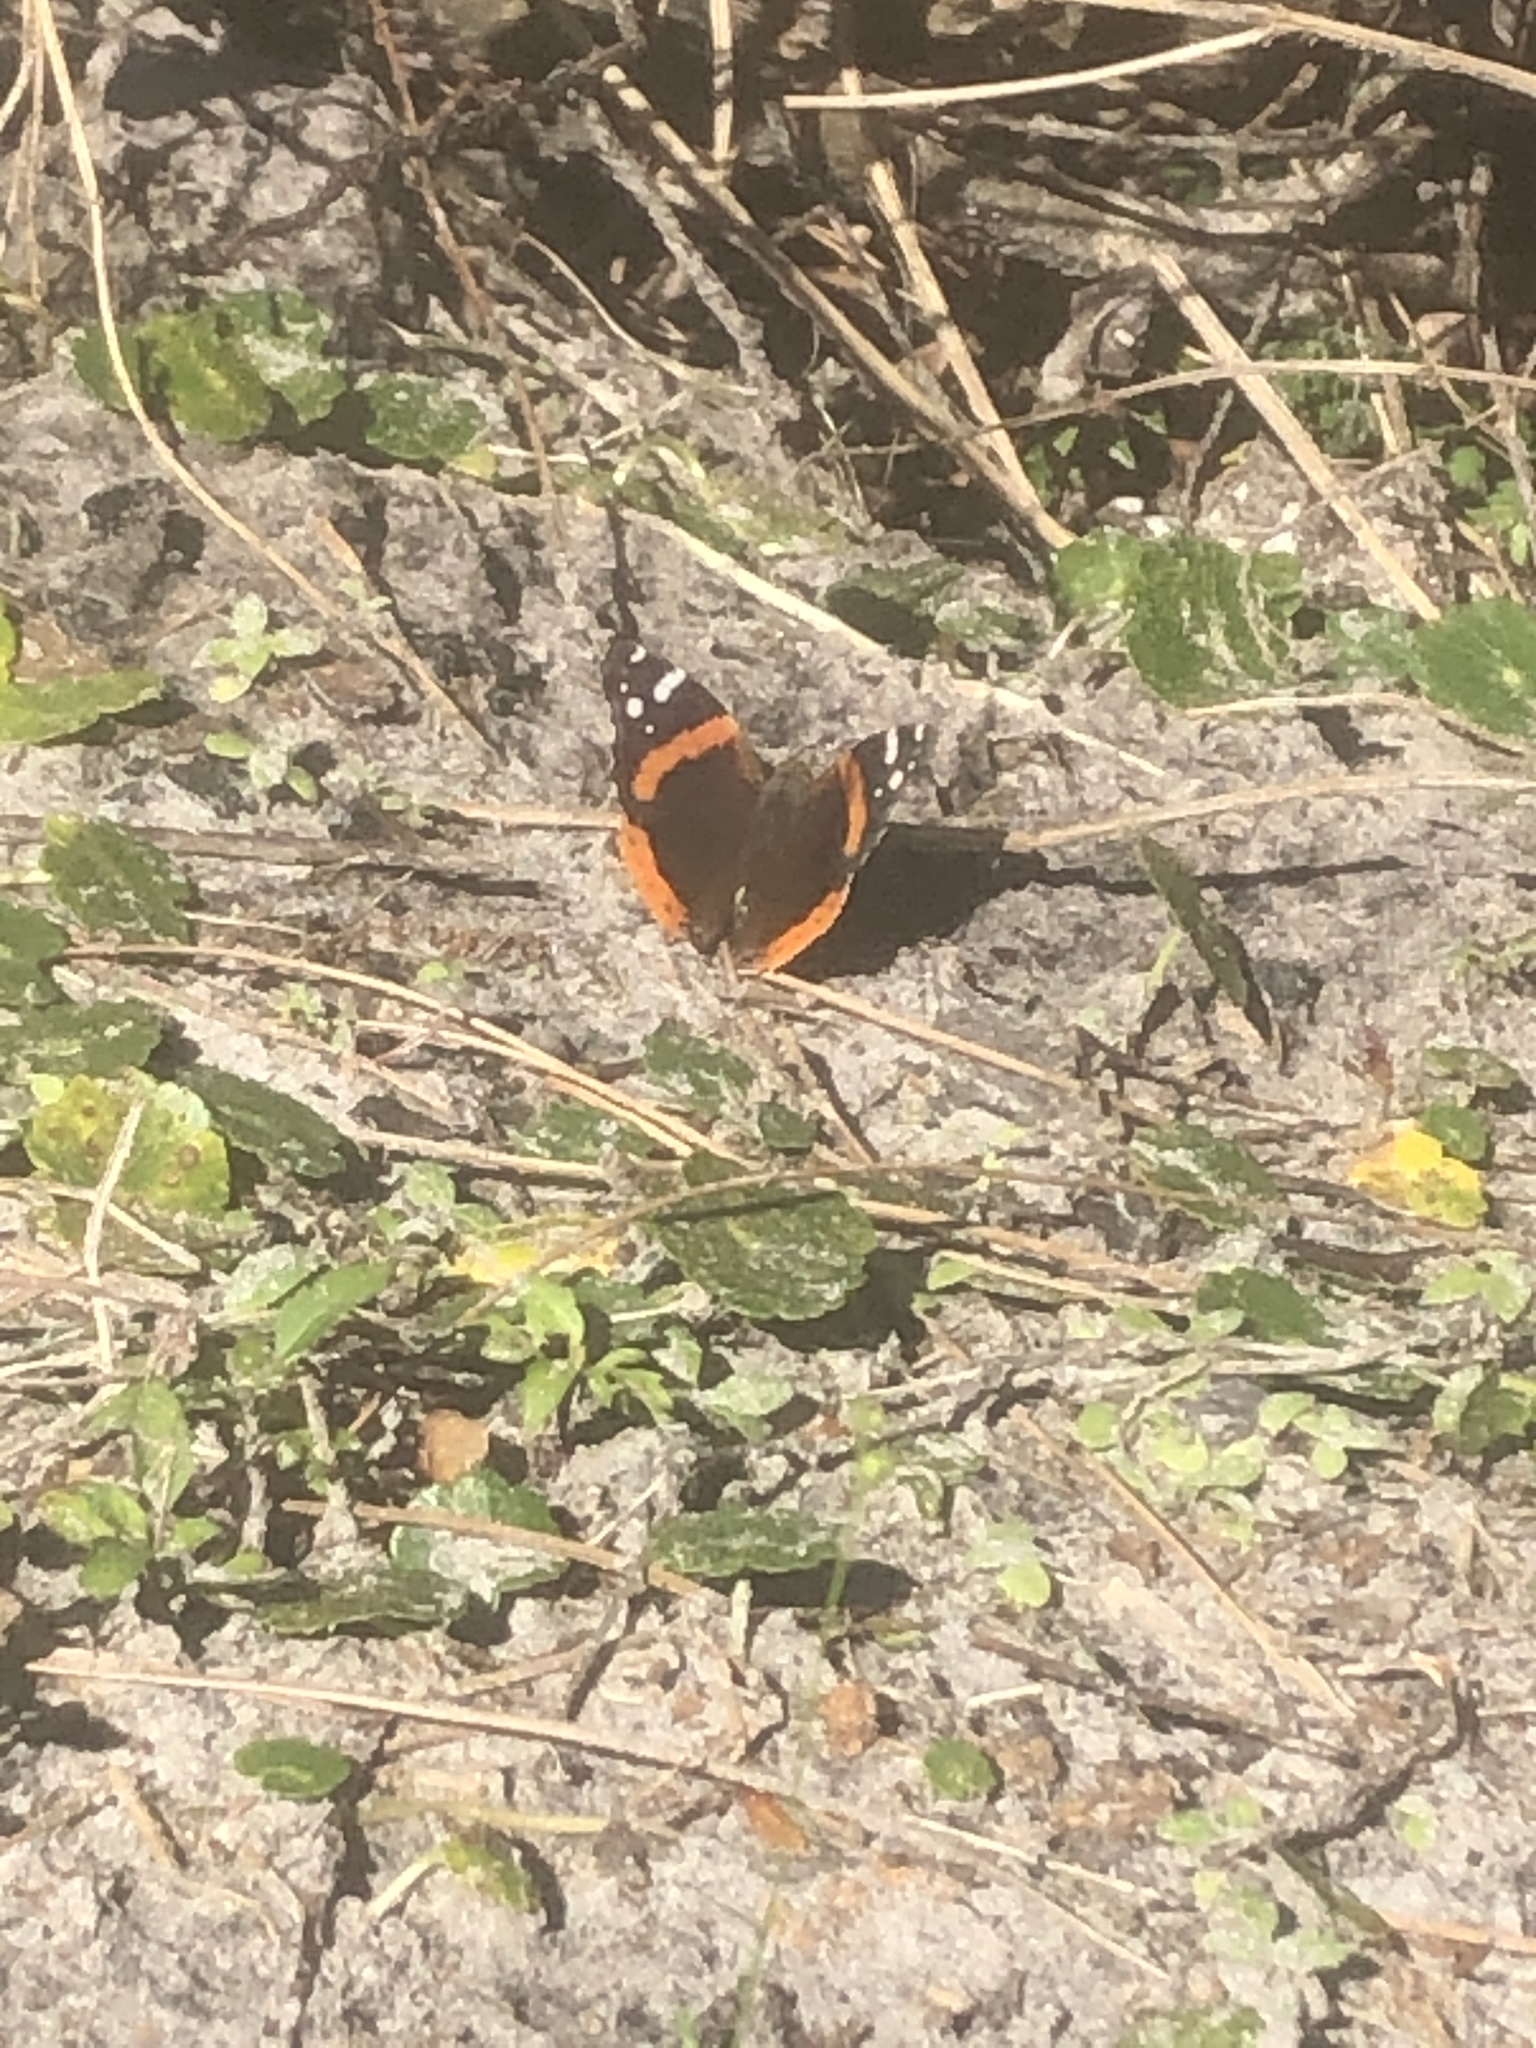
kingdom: Animalia
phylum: Arthropoda
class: Insecta
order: Lepidoptera
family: Nymphalidae
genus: Vanessa
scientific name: Vanessa atalanta
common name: Red admiral
